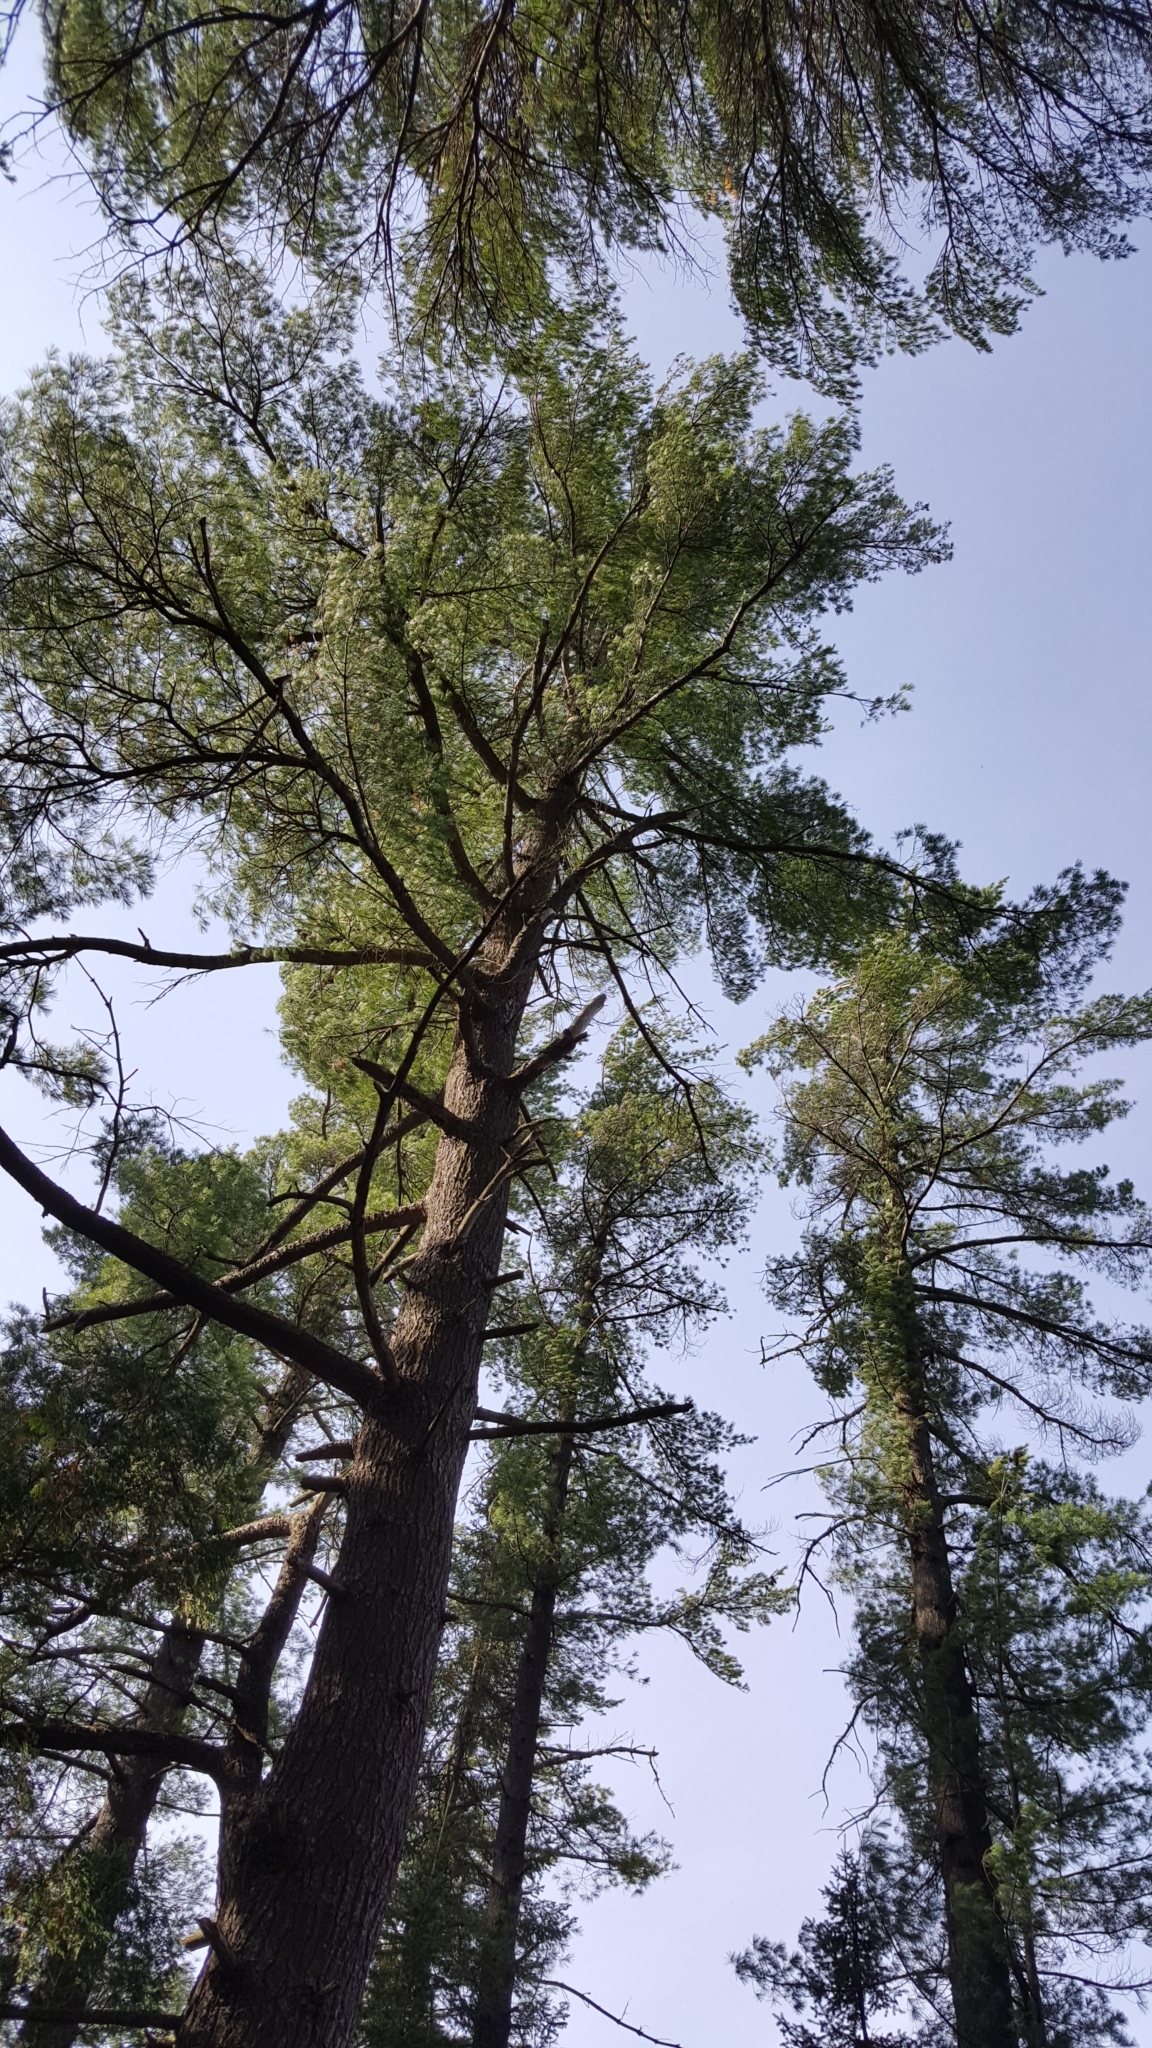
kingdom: Plantae
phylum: Tracheophyta
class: Pinopsida
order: Pinales
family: Pinaceae
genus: Pinus
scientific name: Pinus strobus
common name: Weymouth pine
